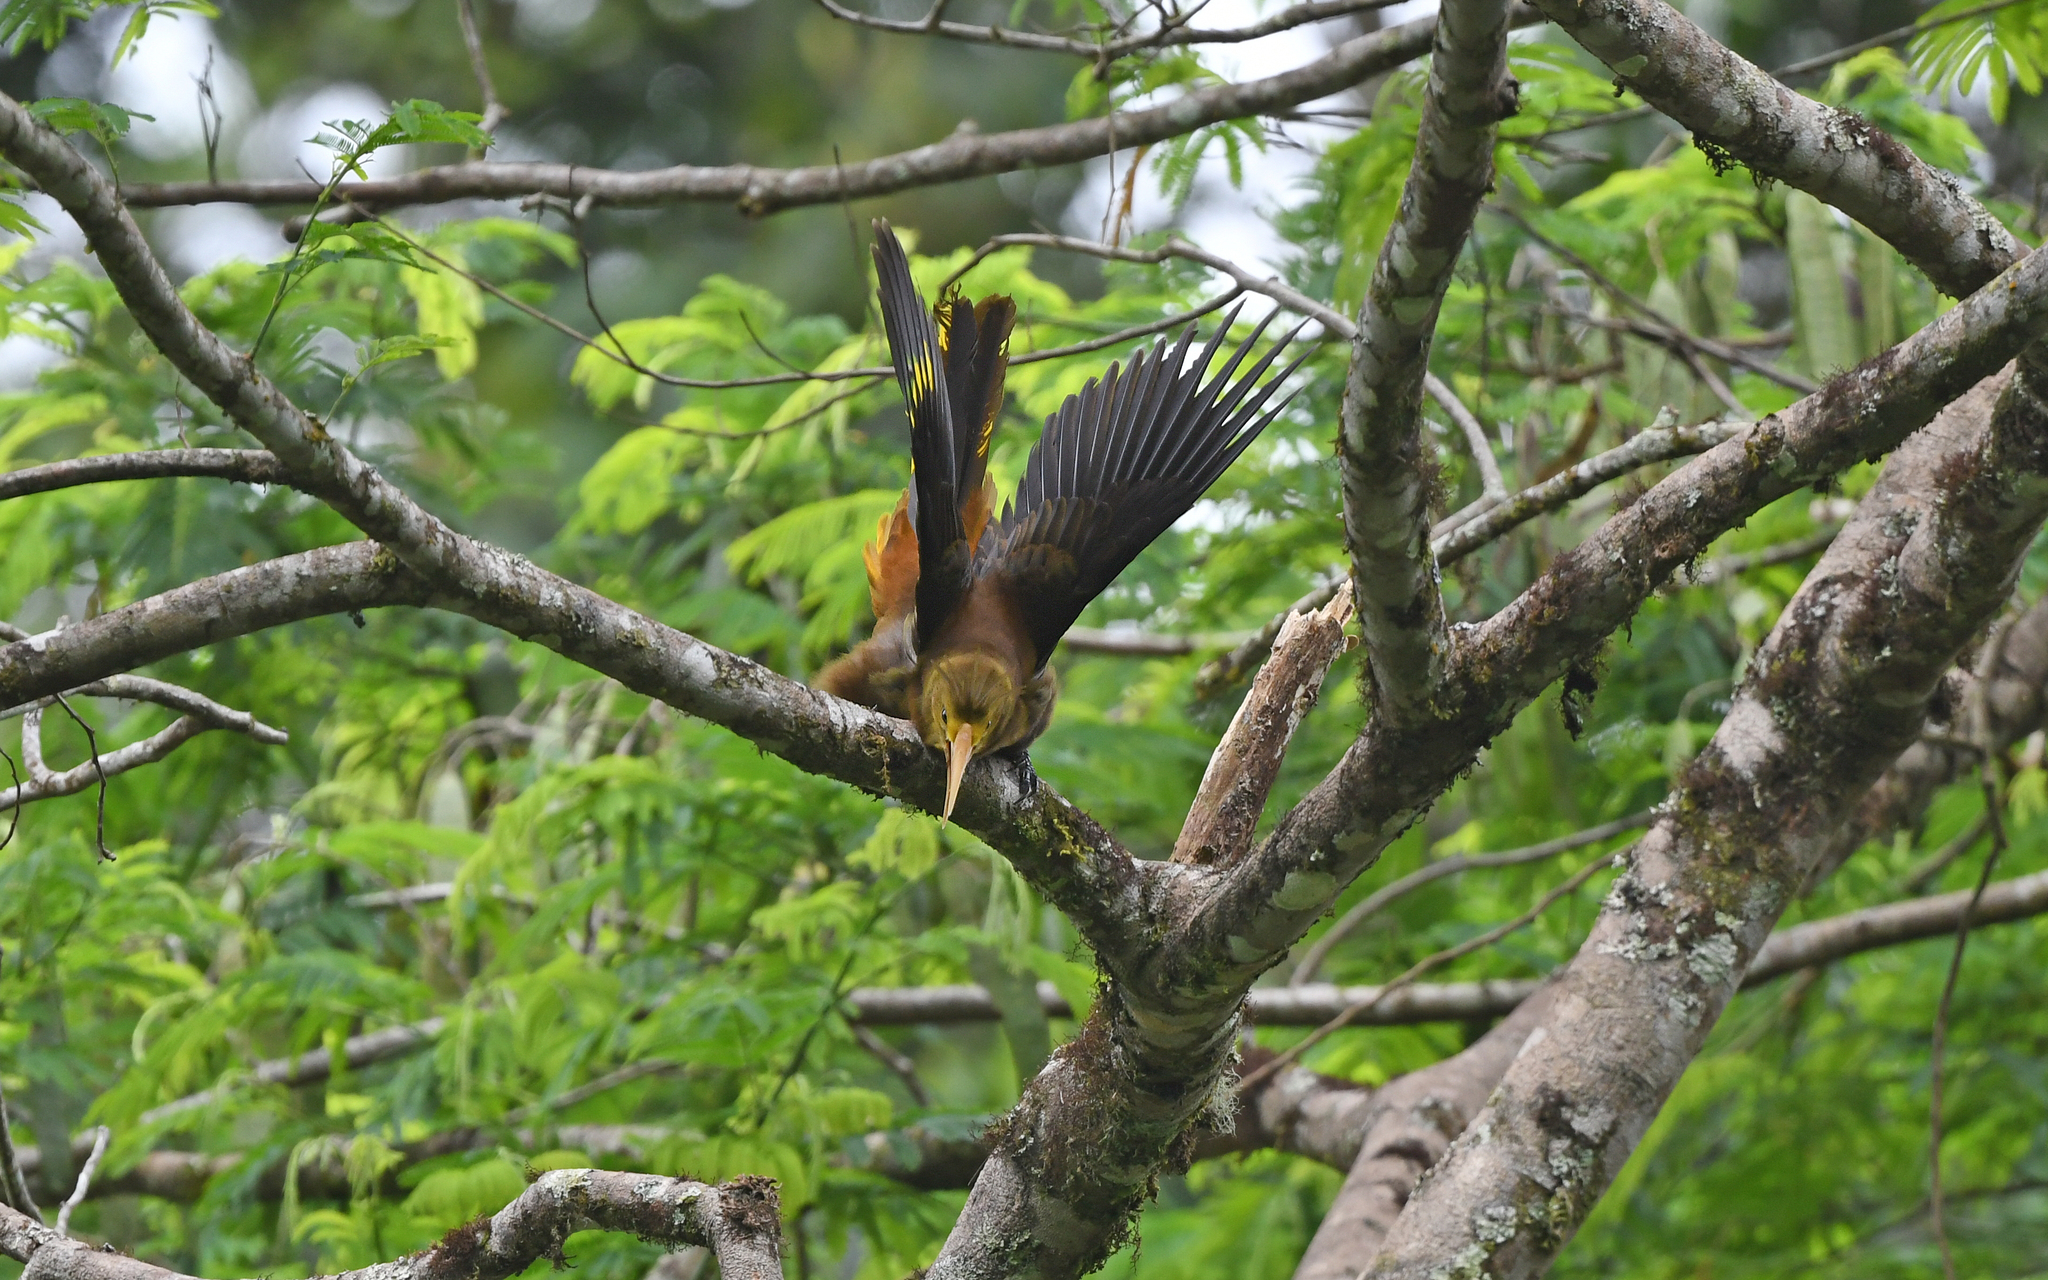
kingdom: Animalia
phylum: Chordata
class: Aves
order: Passeriformes
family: Icteridae
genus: Psarocolius
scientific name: Psarocolius angustifrons
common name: Russet-backed oropendola
